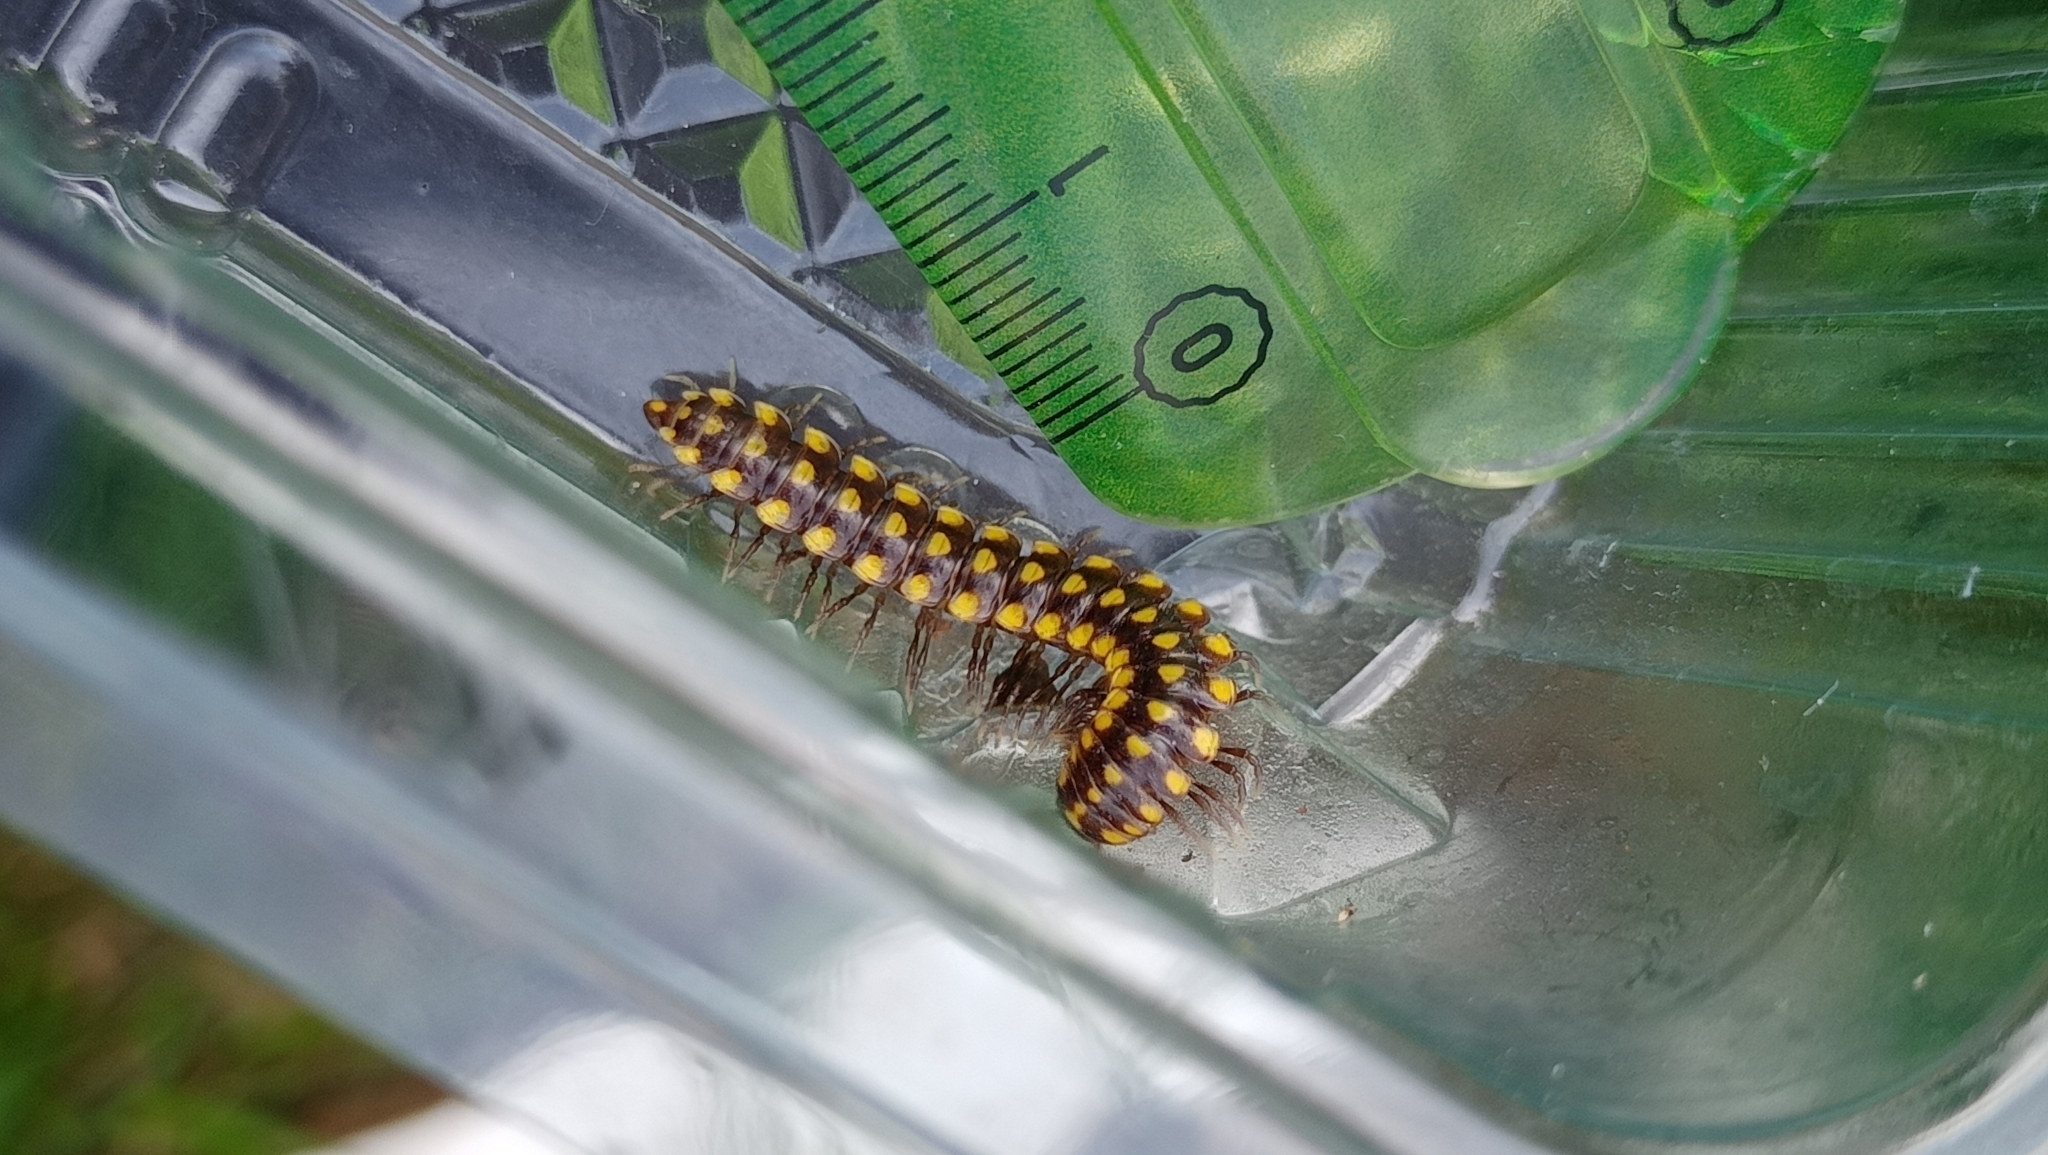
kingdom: Animalia
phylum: Arthropoda
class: Diplopoda
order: Polydesmida
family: Xystodesmidae
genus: Melaphe
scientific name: Melaphe vestita
